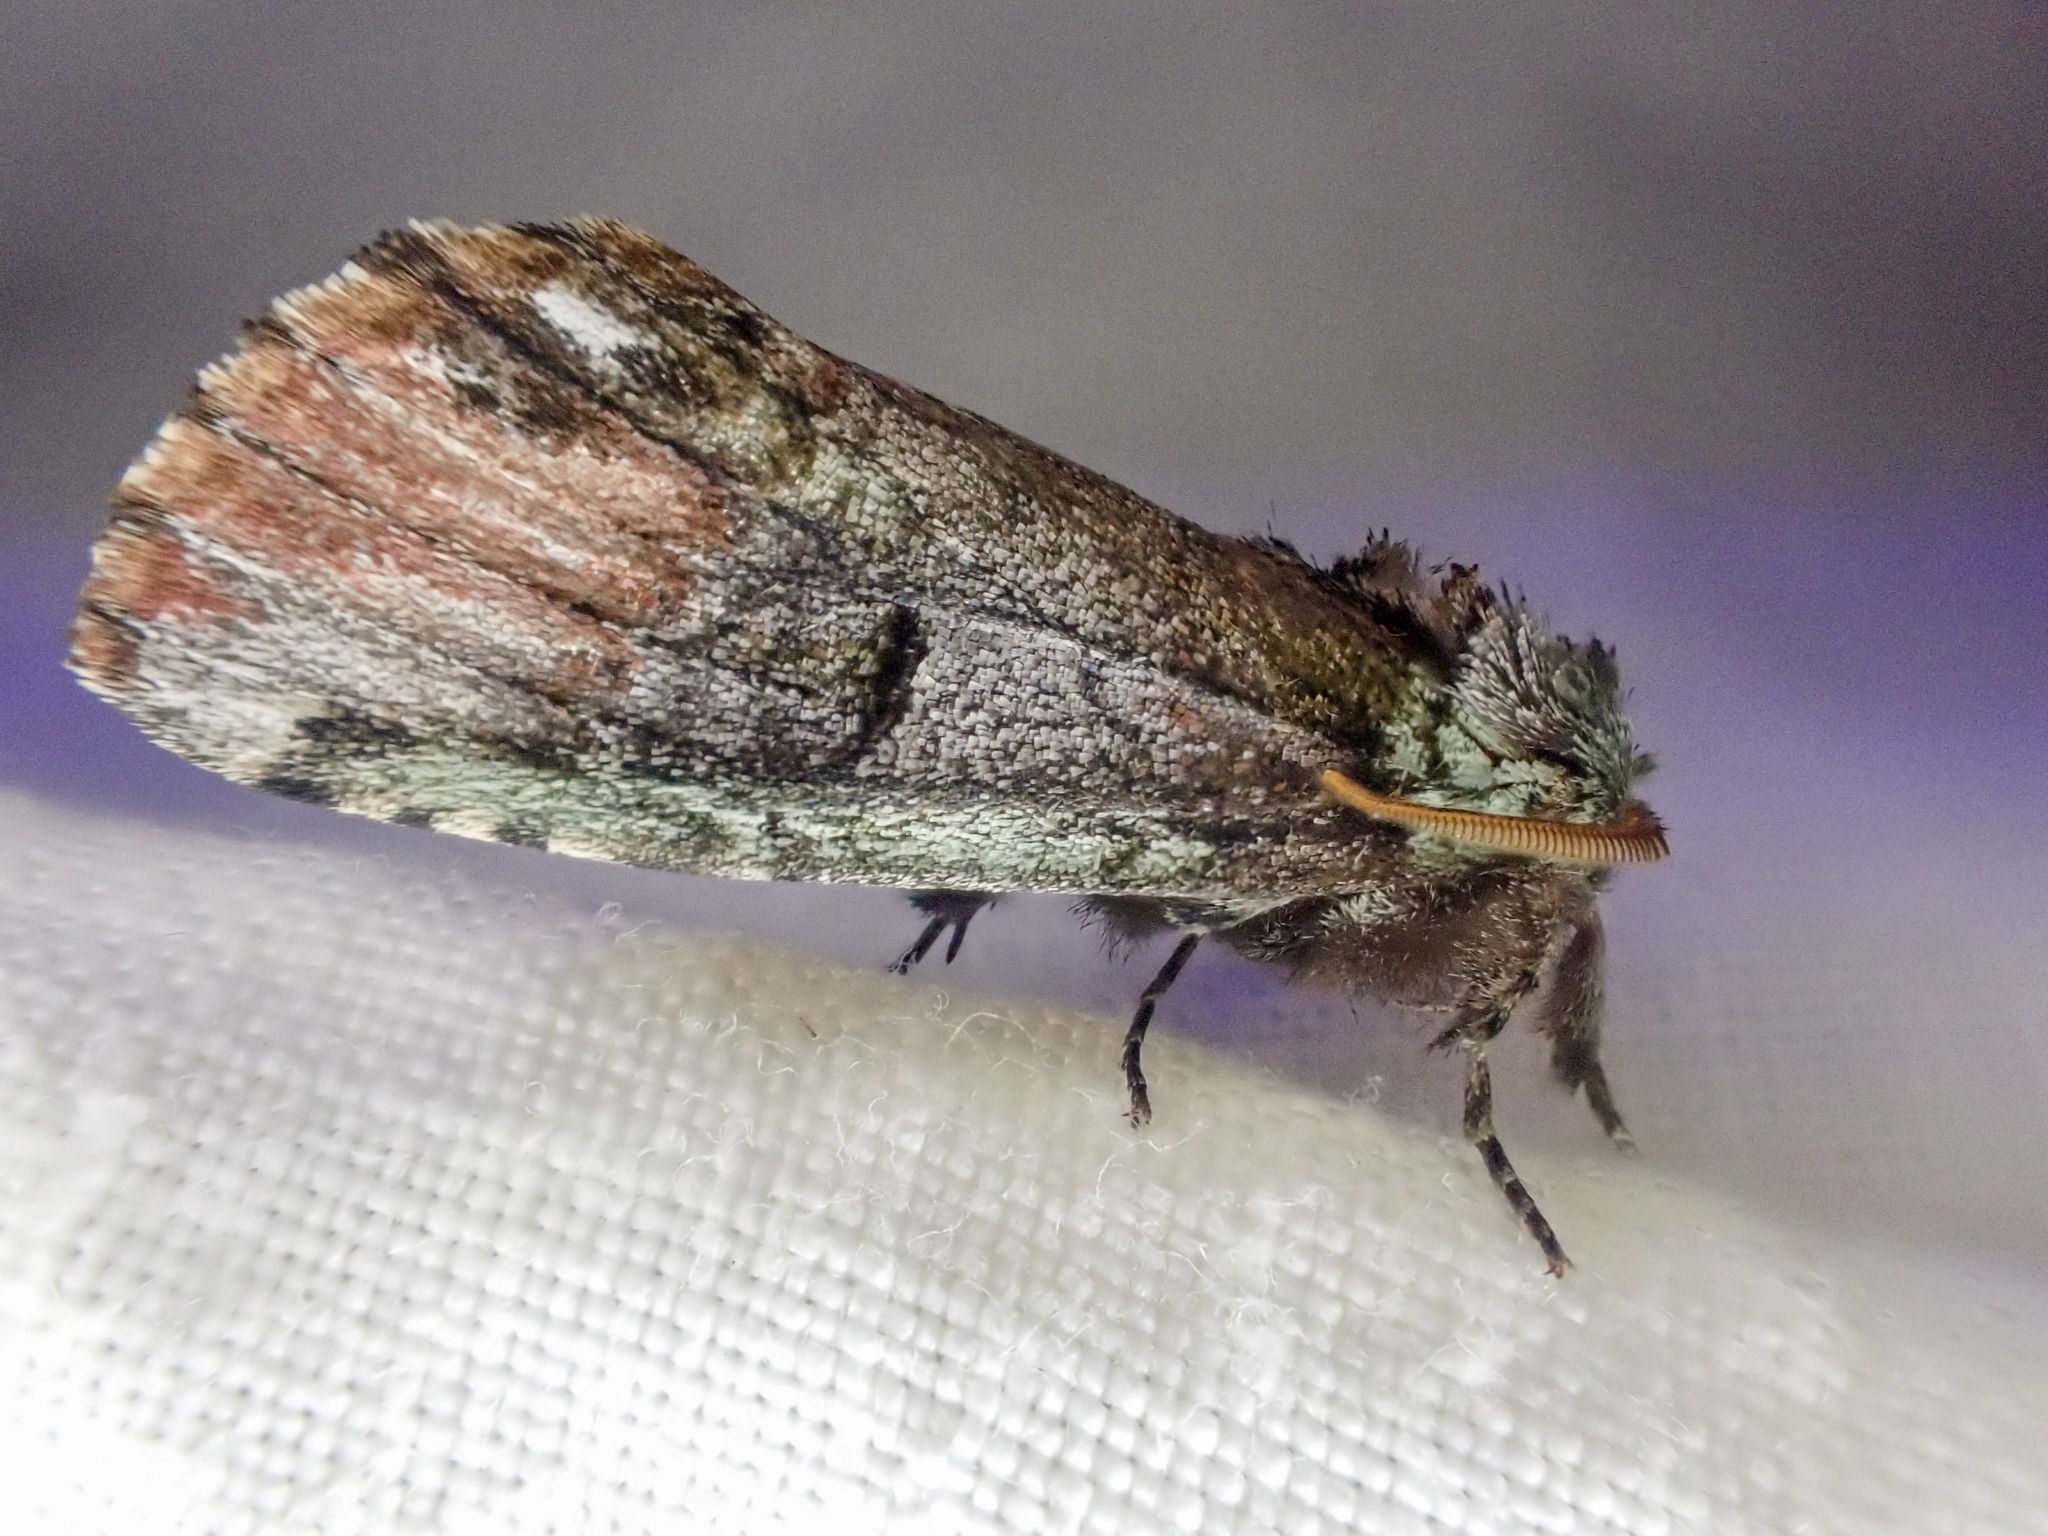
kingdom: Animalia
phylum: Arthropoda
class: Insecta
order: Lepidoptera
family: Notodontidae
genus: Schizura
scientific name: Schizura
